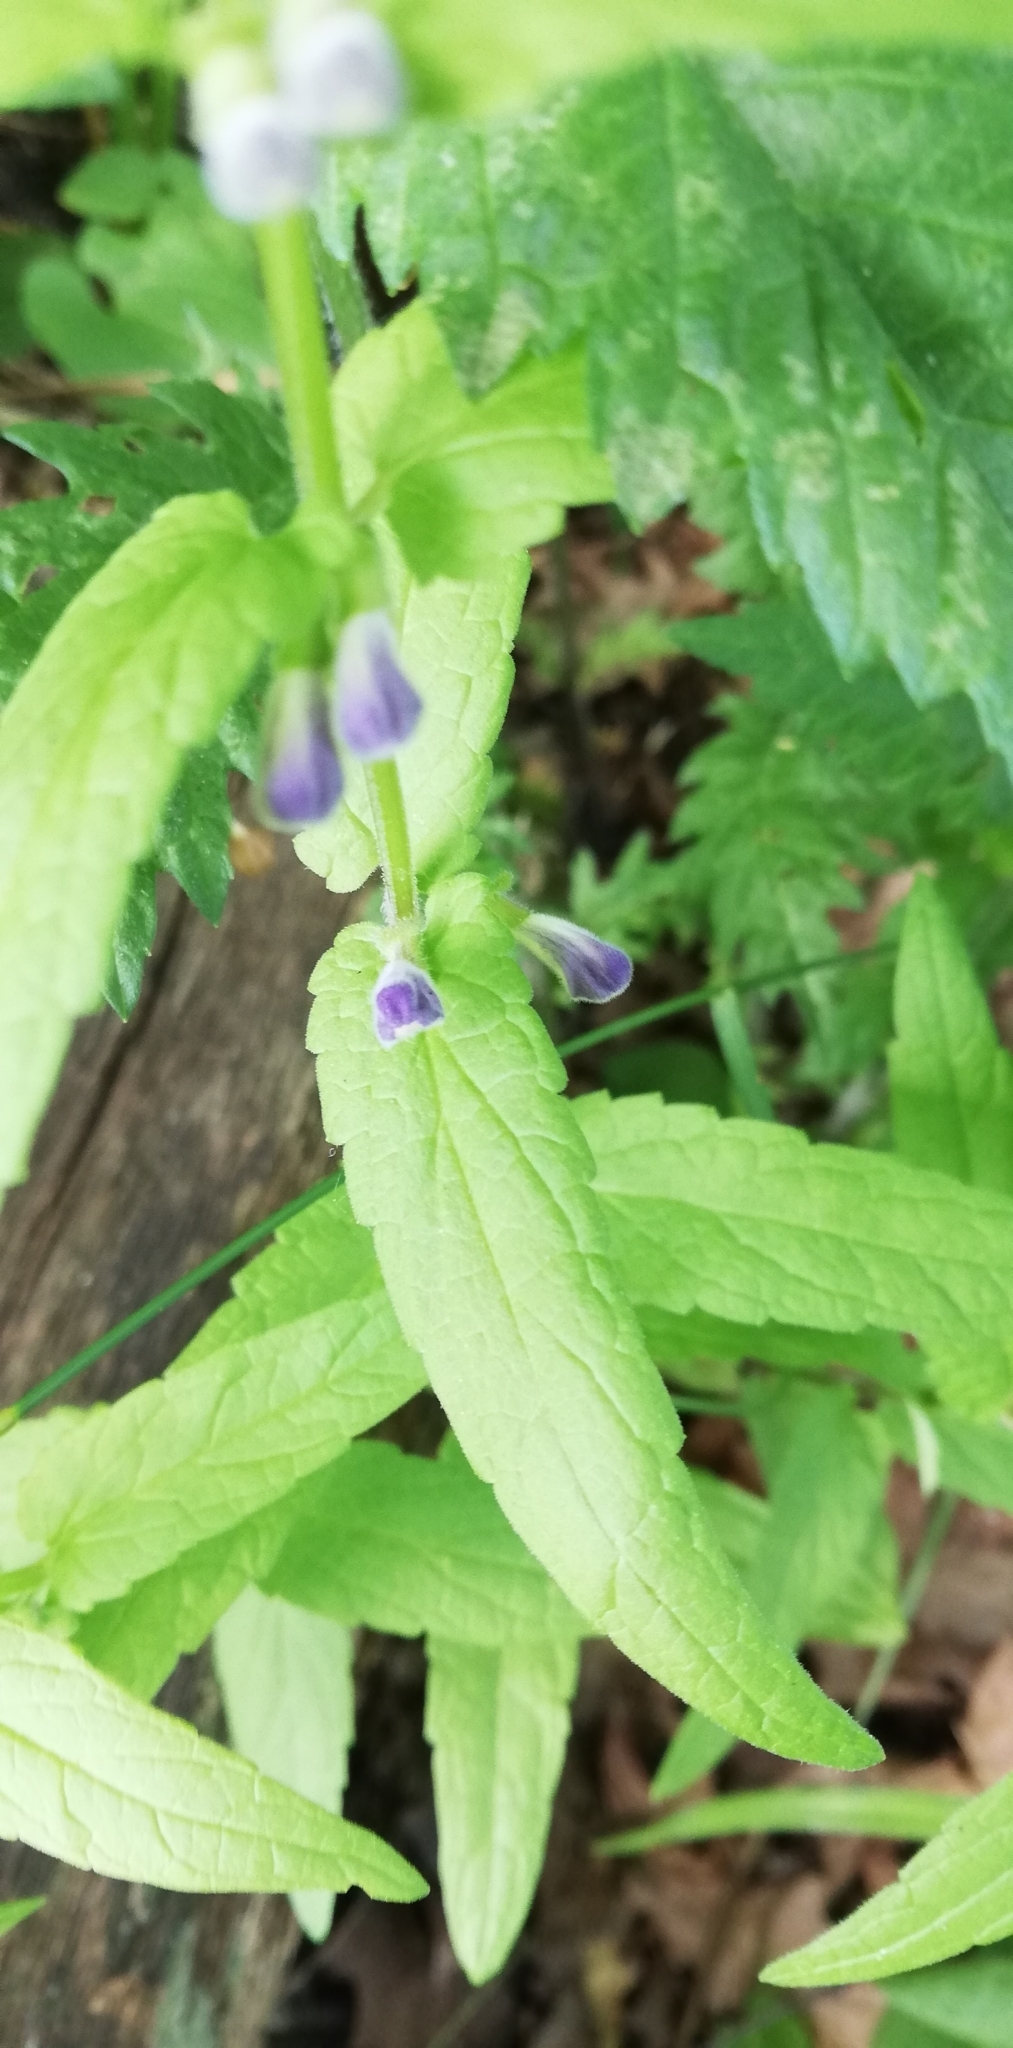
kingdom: Plantae
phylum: Tracheophyta
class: Magnoliopsida
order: Lamiales
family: Lamiaceae
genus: Scutellaria
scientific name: Scutellaria galericulata
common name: Skullcap
